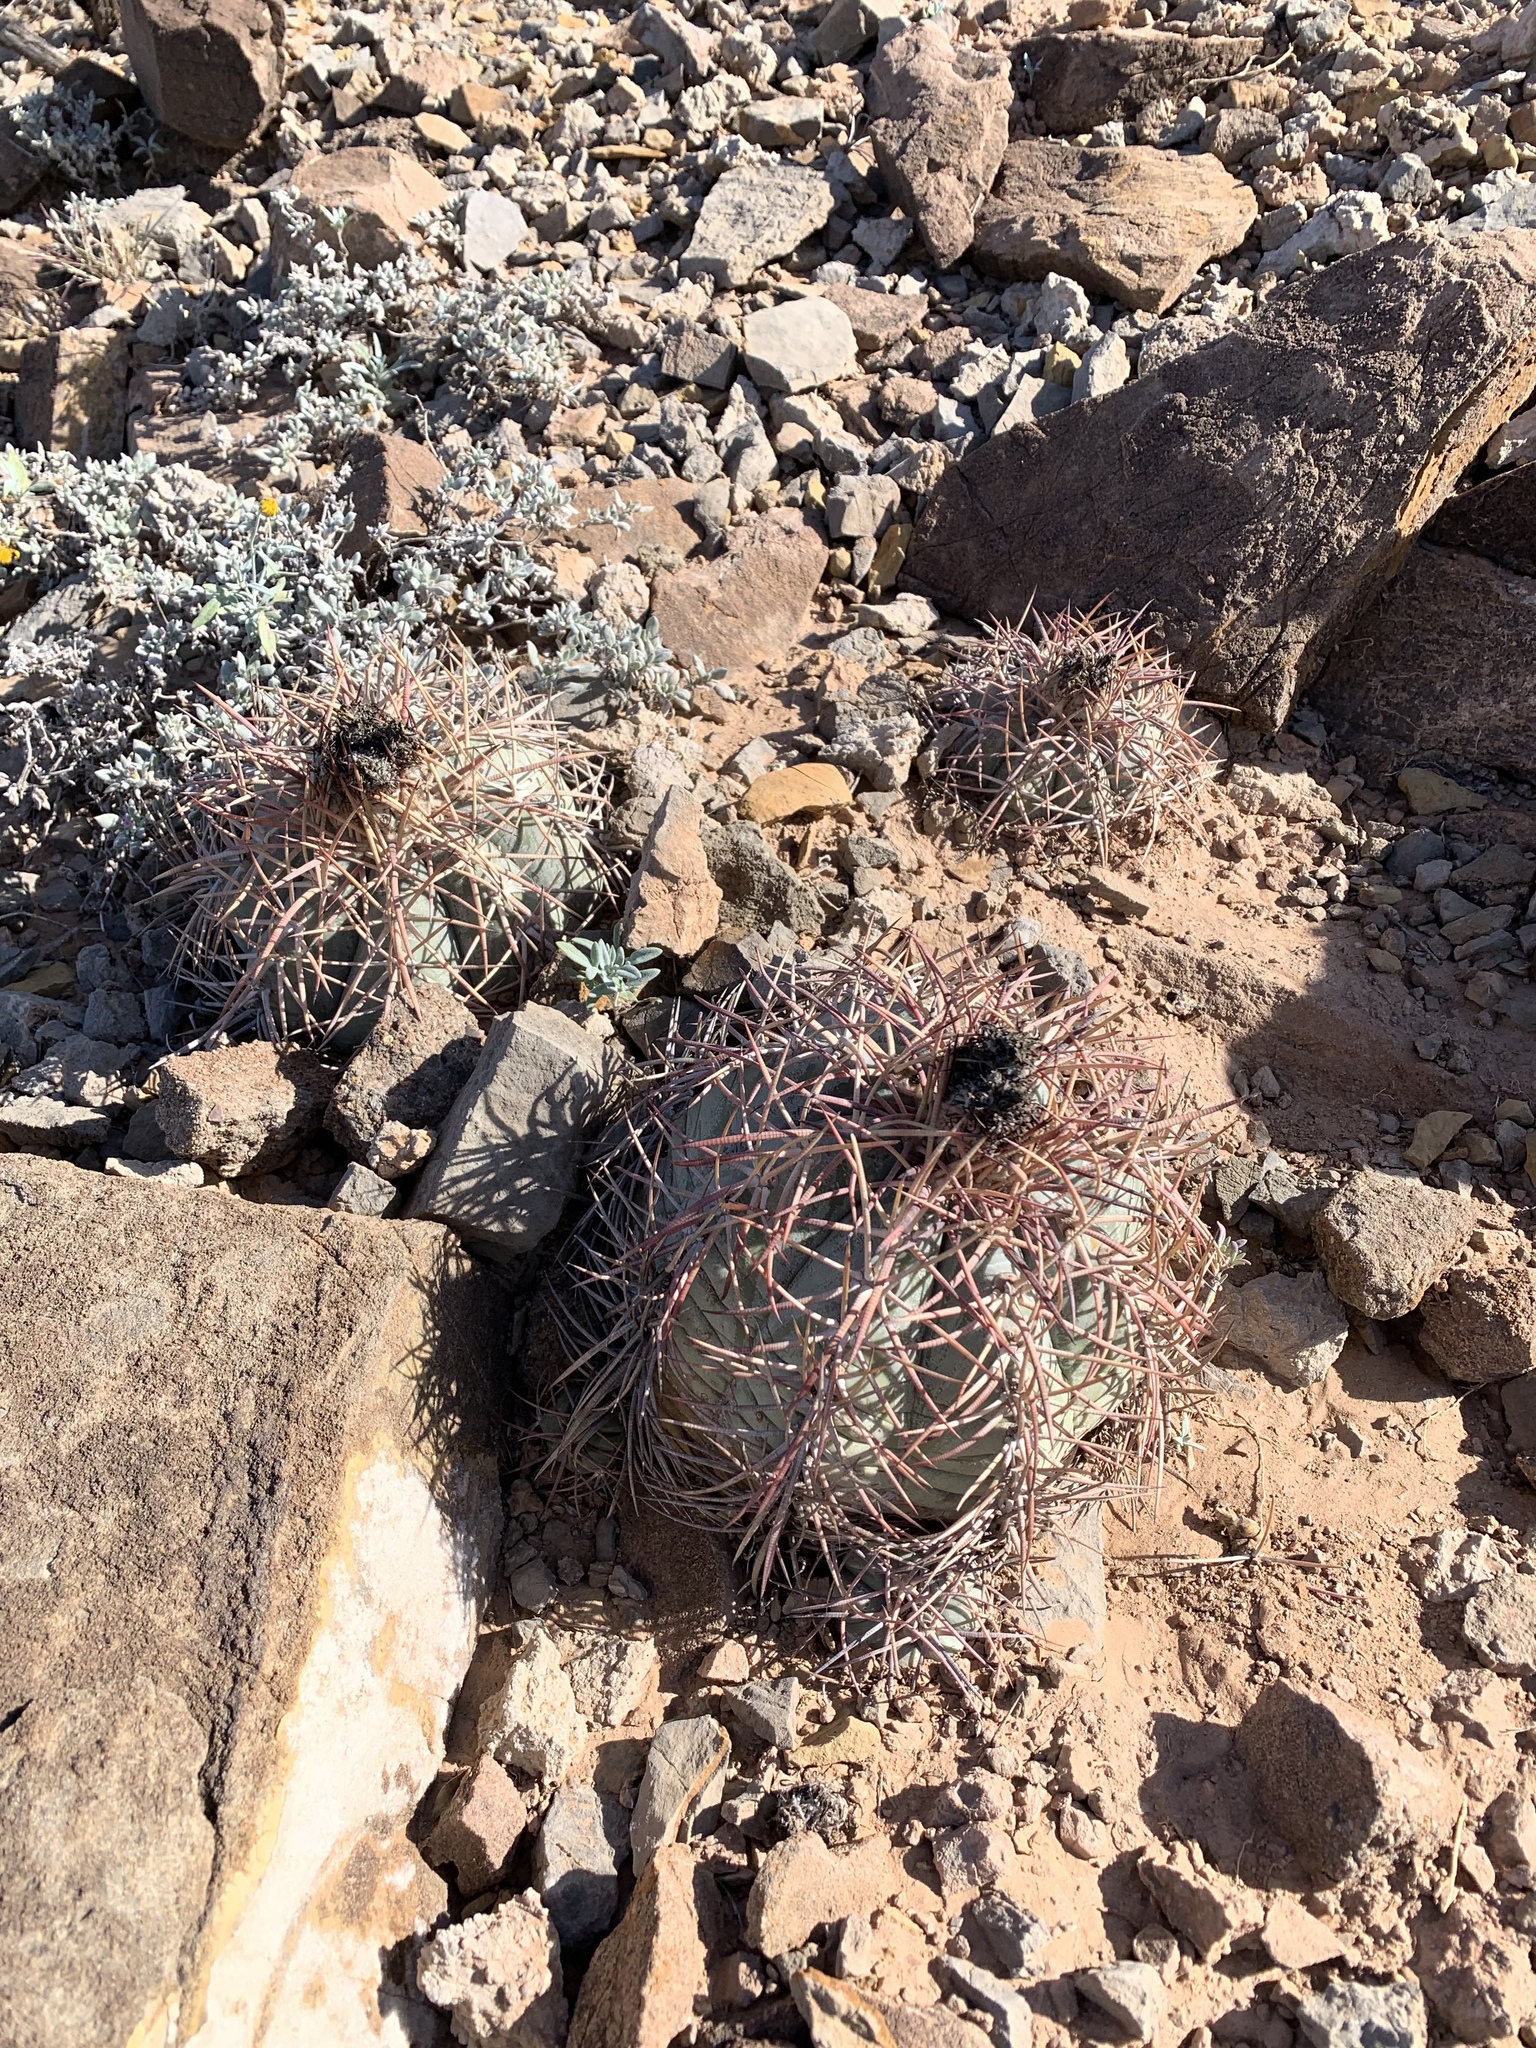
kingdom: Plantae
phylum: Tracheophyta
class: Magnoliopsida
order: Caryophyllales
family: Cactaceae
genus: Echinocactus
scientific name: Echinocactus horizonthalonius
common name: Devilshead
